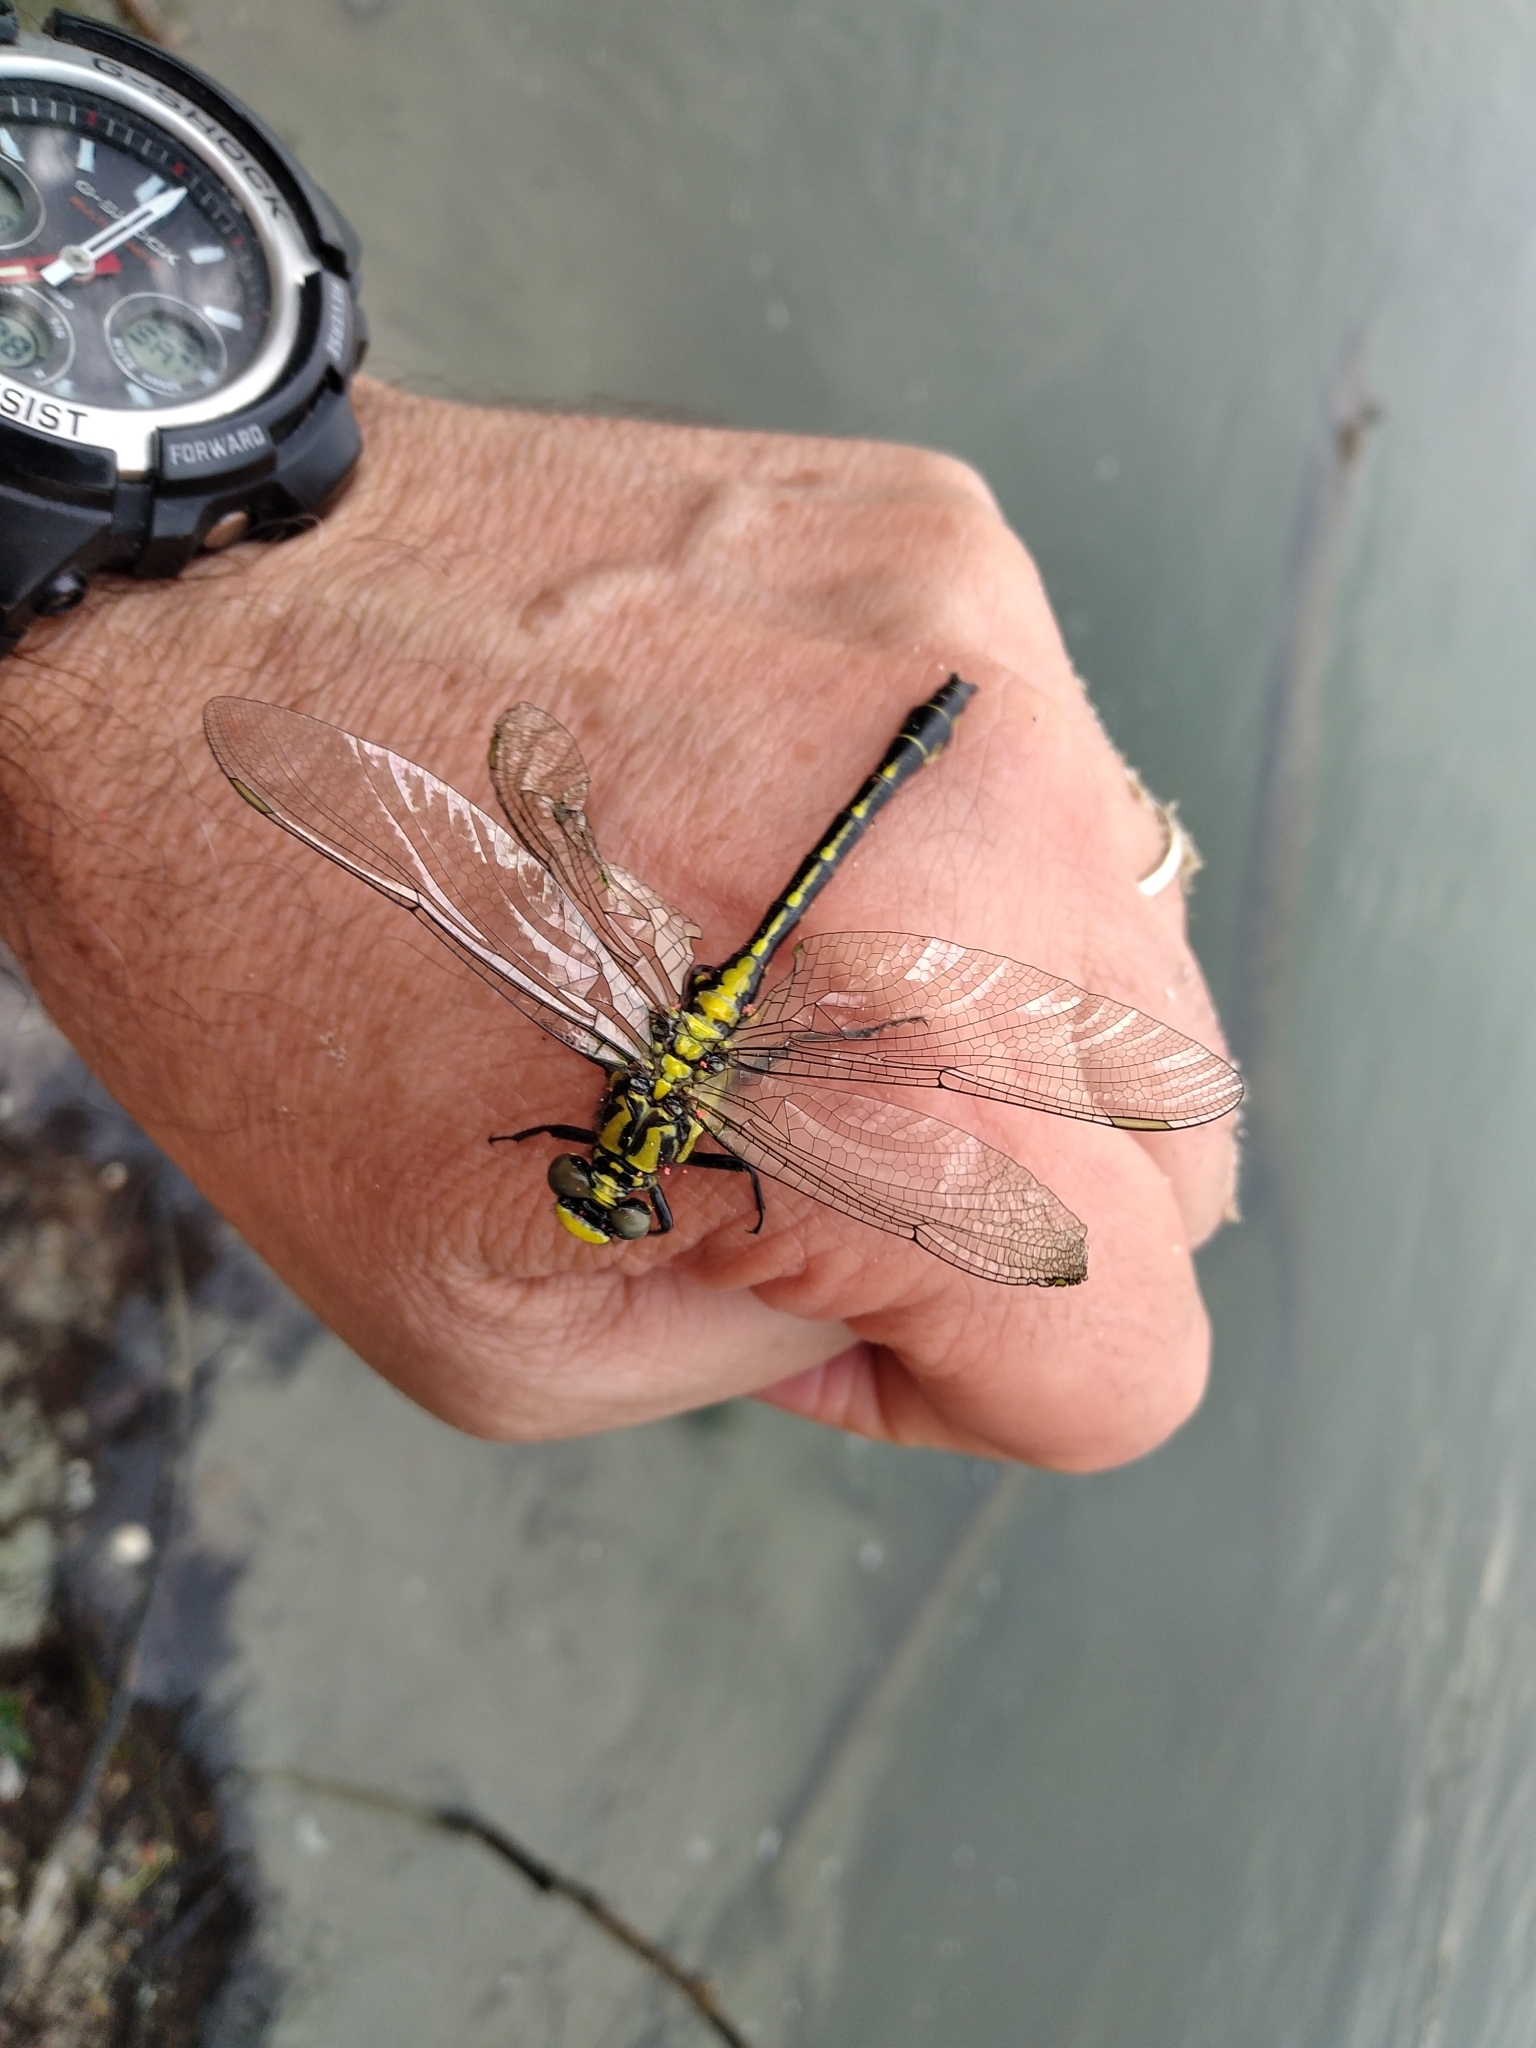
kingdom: Animalia
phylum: Arthropoda
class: Insecta
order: Odonata
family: Gomphidae
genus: Gomphus
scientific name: Gomphus vulgatissimus
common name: Club-tailed dragonfly
